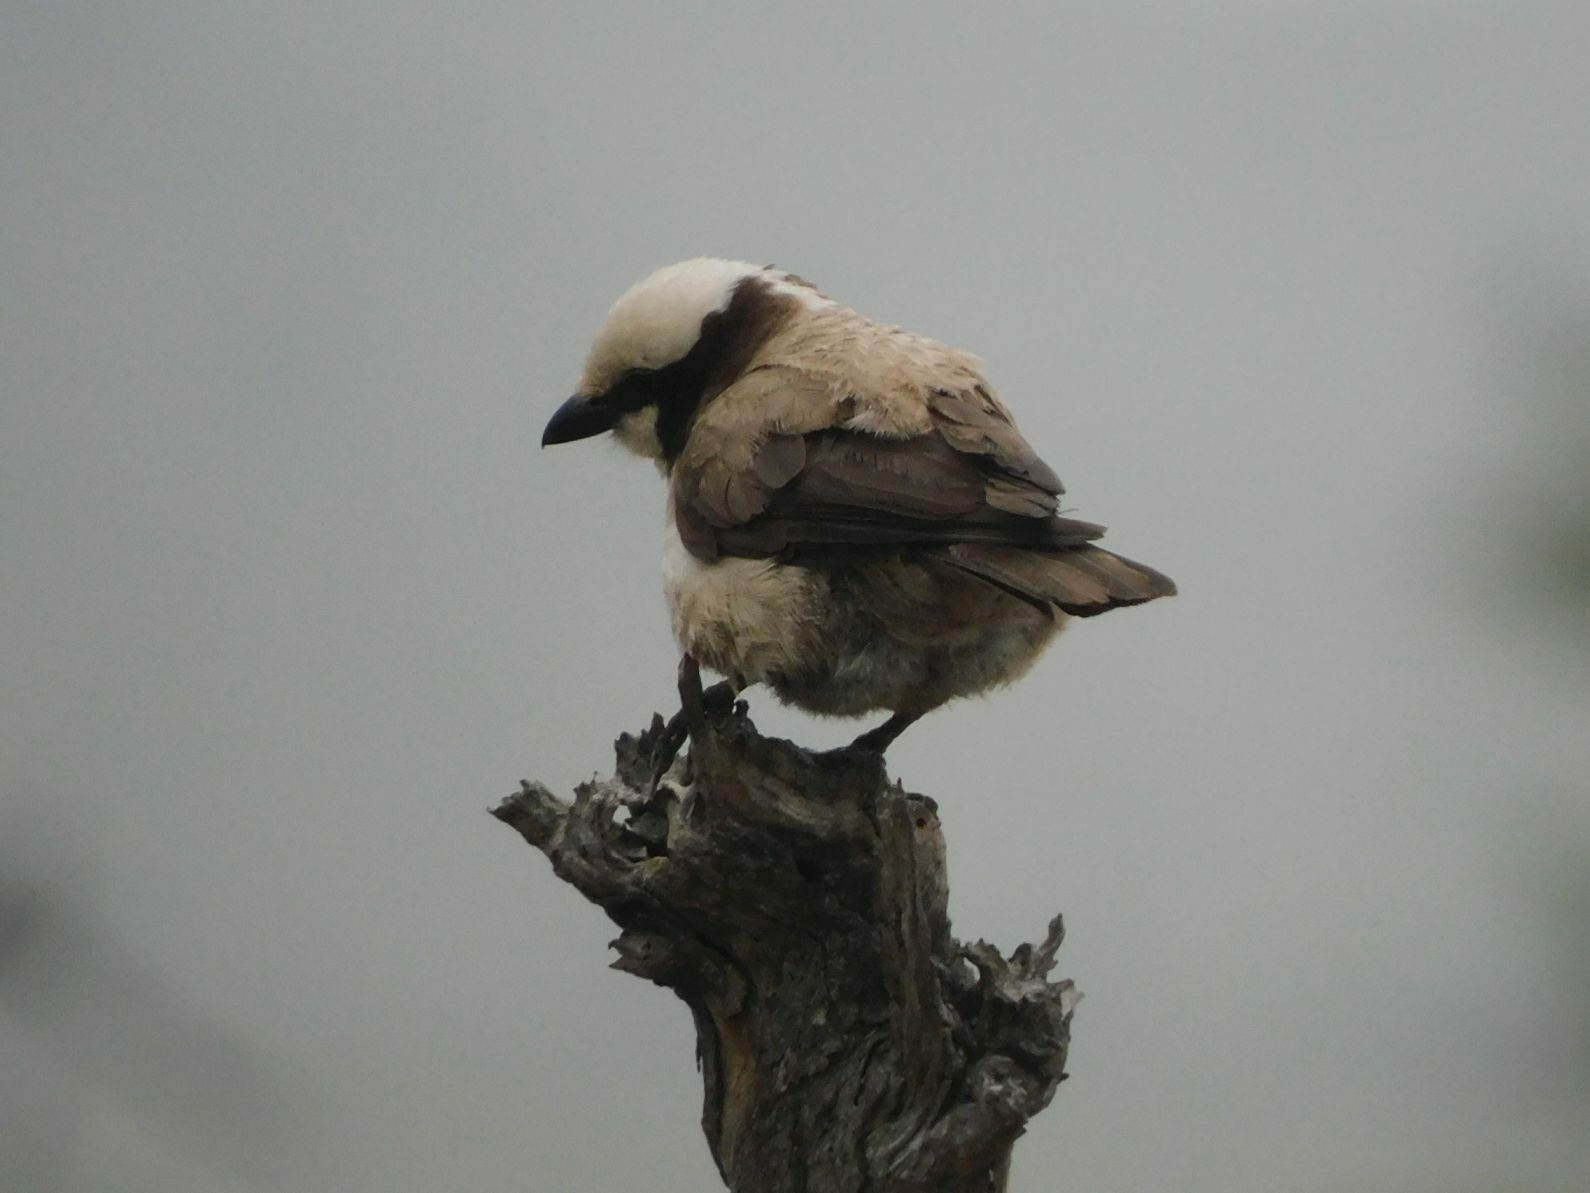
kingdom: Animalia
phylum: Chordata
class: Aves
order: Passeriformes
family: Laniidae
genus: Eurocephalus
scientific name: Eurocephalus anguitimens
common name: Southern white-crowned shrike
